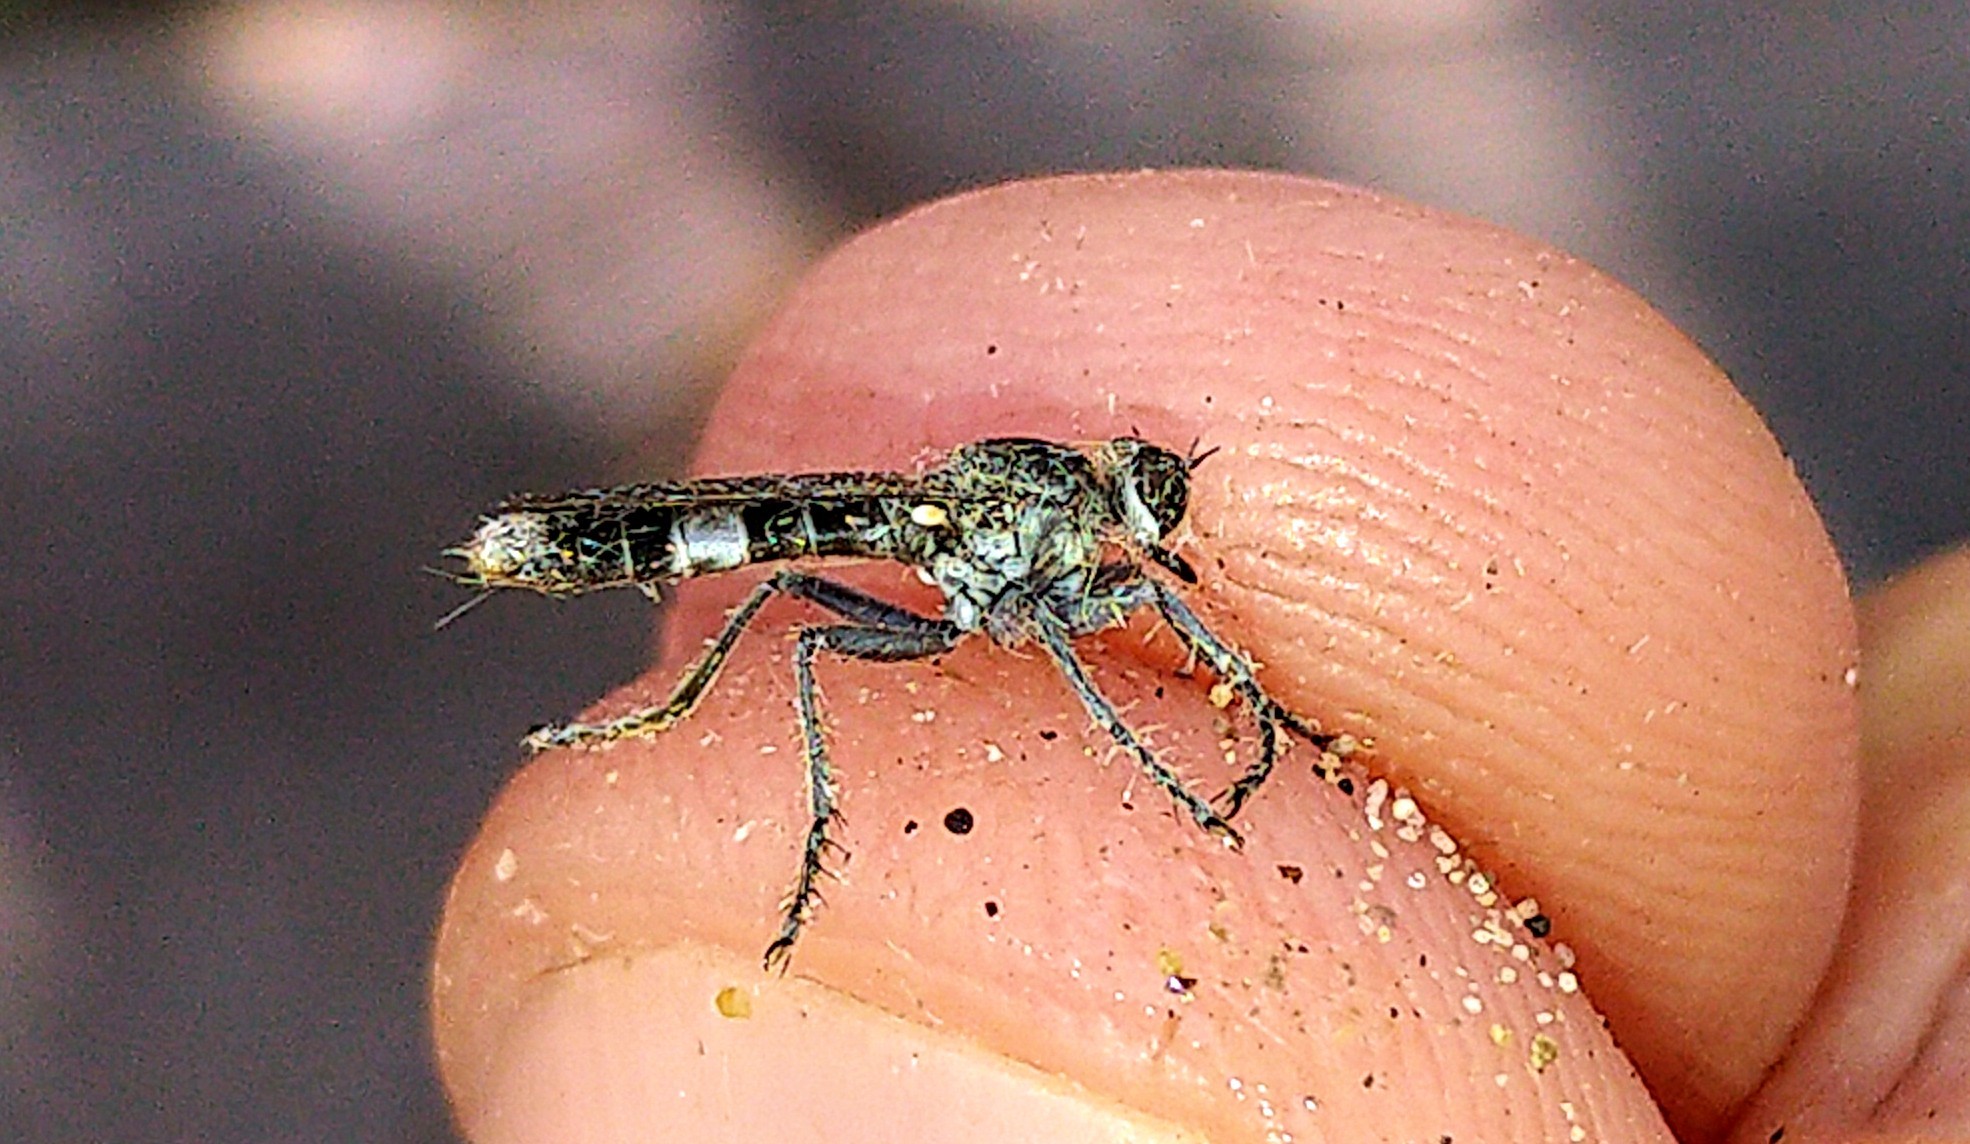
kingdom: Animalia
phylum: Arthropoda
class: Insecta
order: Diptera
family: Asilidae
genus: Stichopogon
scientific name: Stichopogon trifasciatus
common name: Three-banded robber fly
